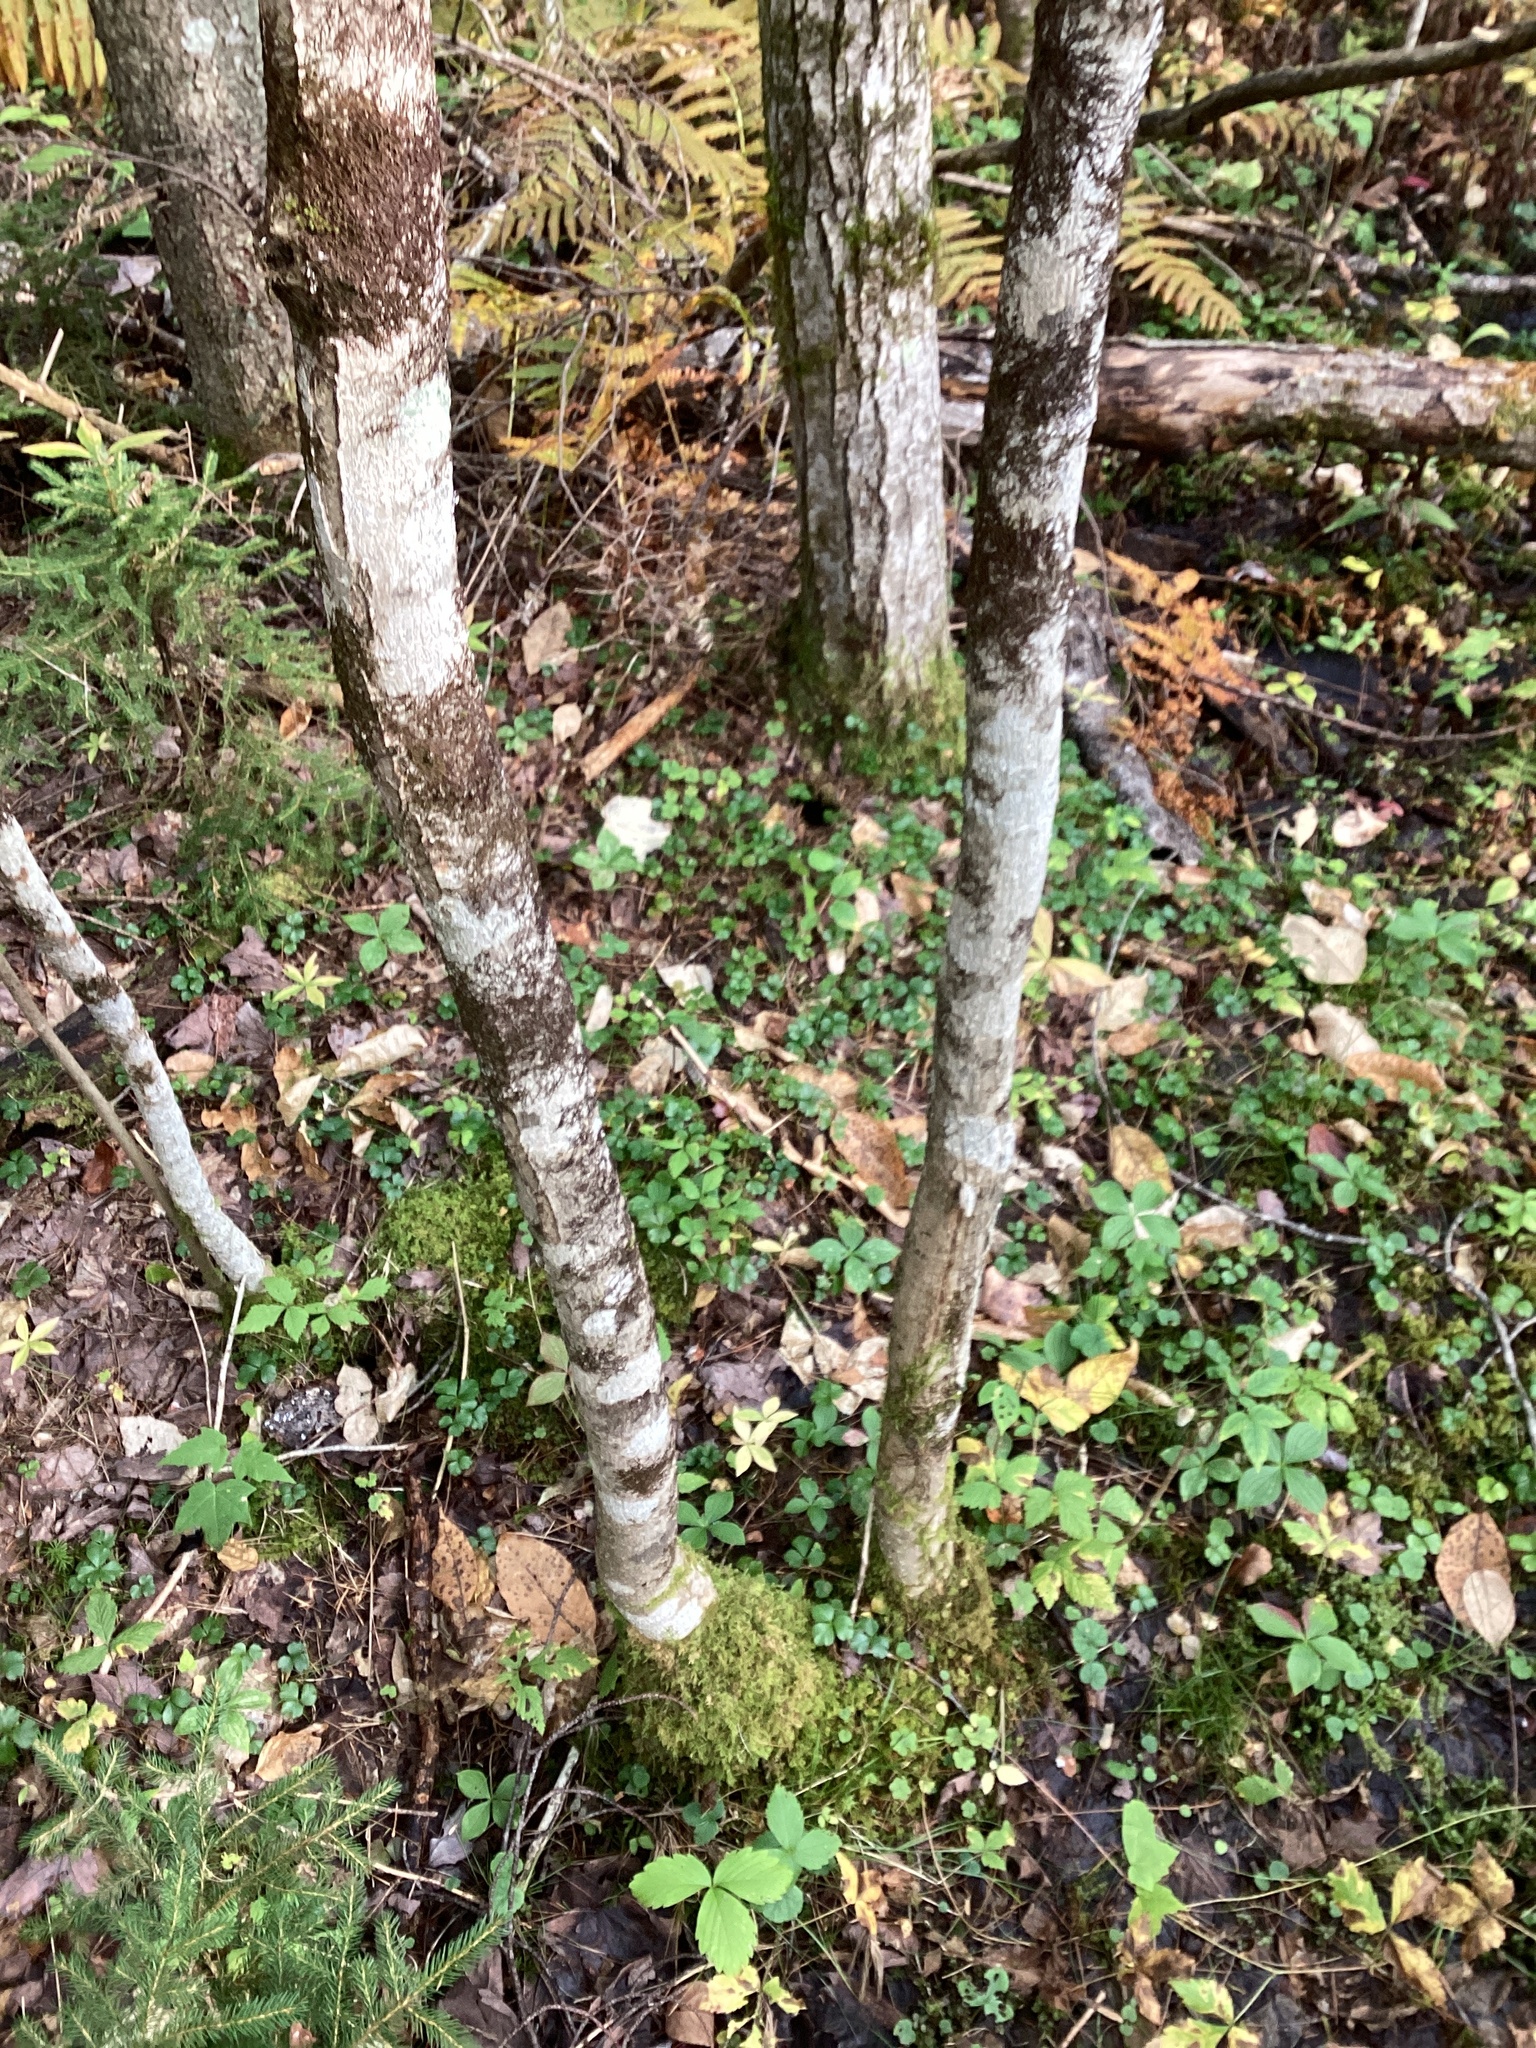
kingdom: Plantae
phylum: Tracheophyta
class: Magnoliopsida
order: Lamiales
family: Oleaceae
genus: Fraxinus
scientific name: Fraxinus nigra
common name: Black ash
